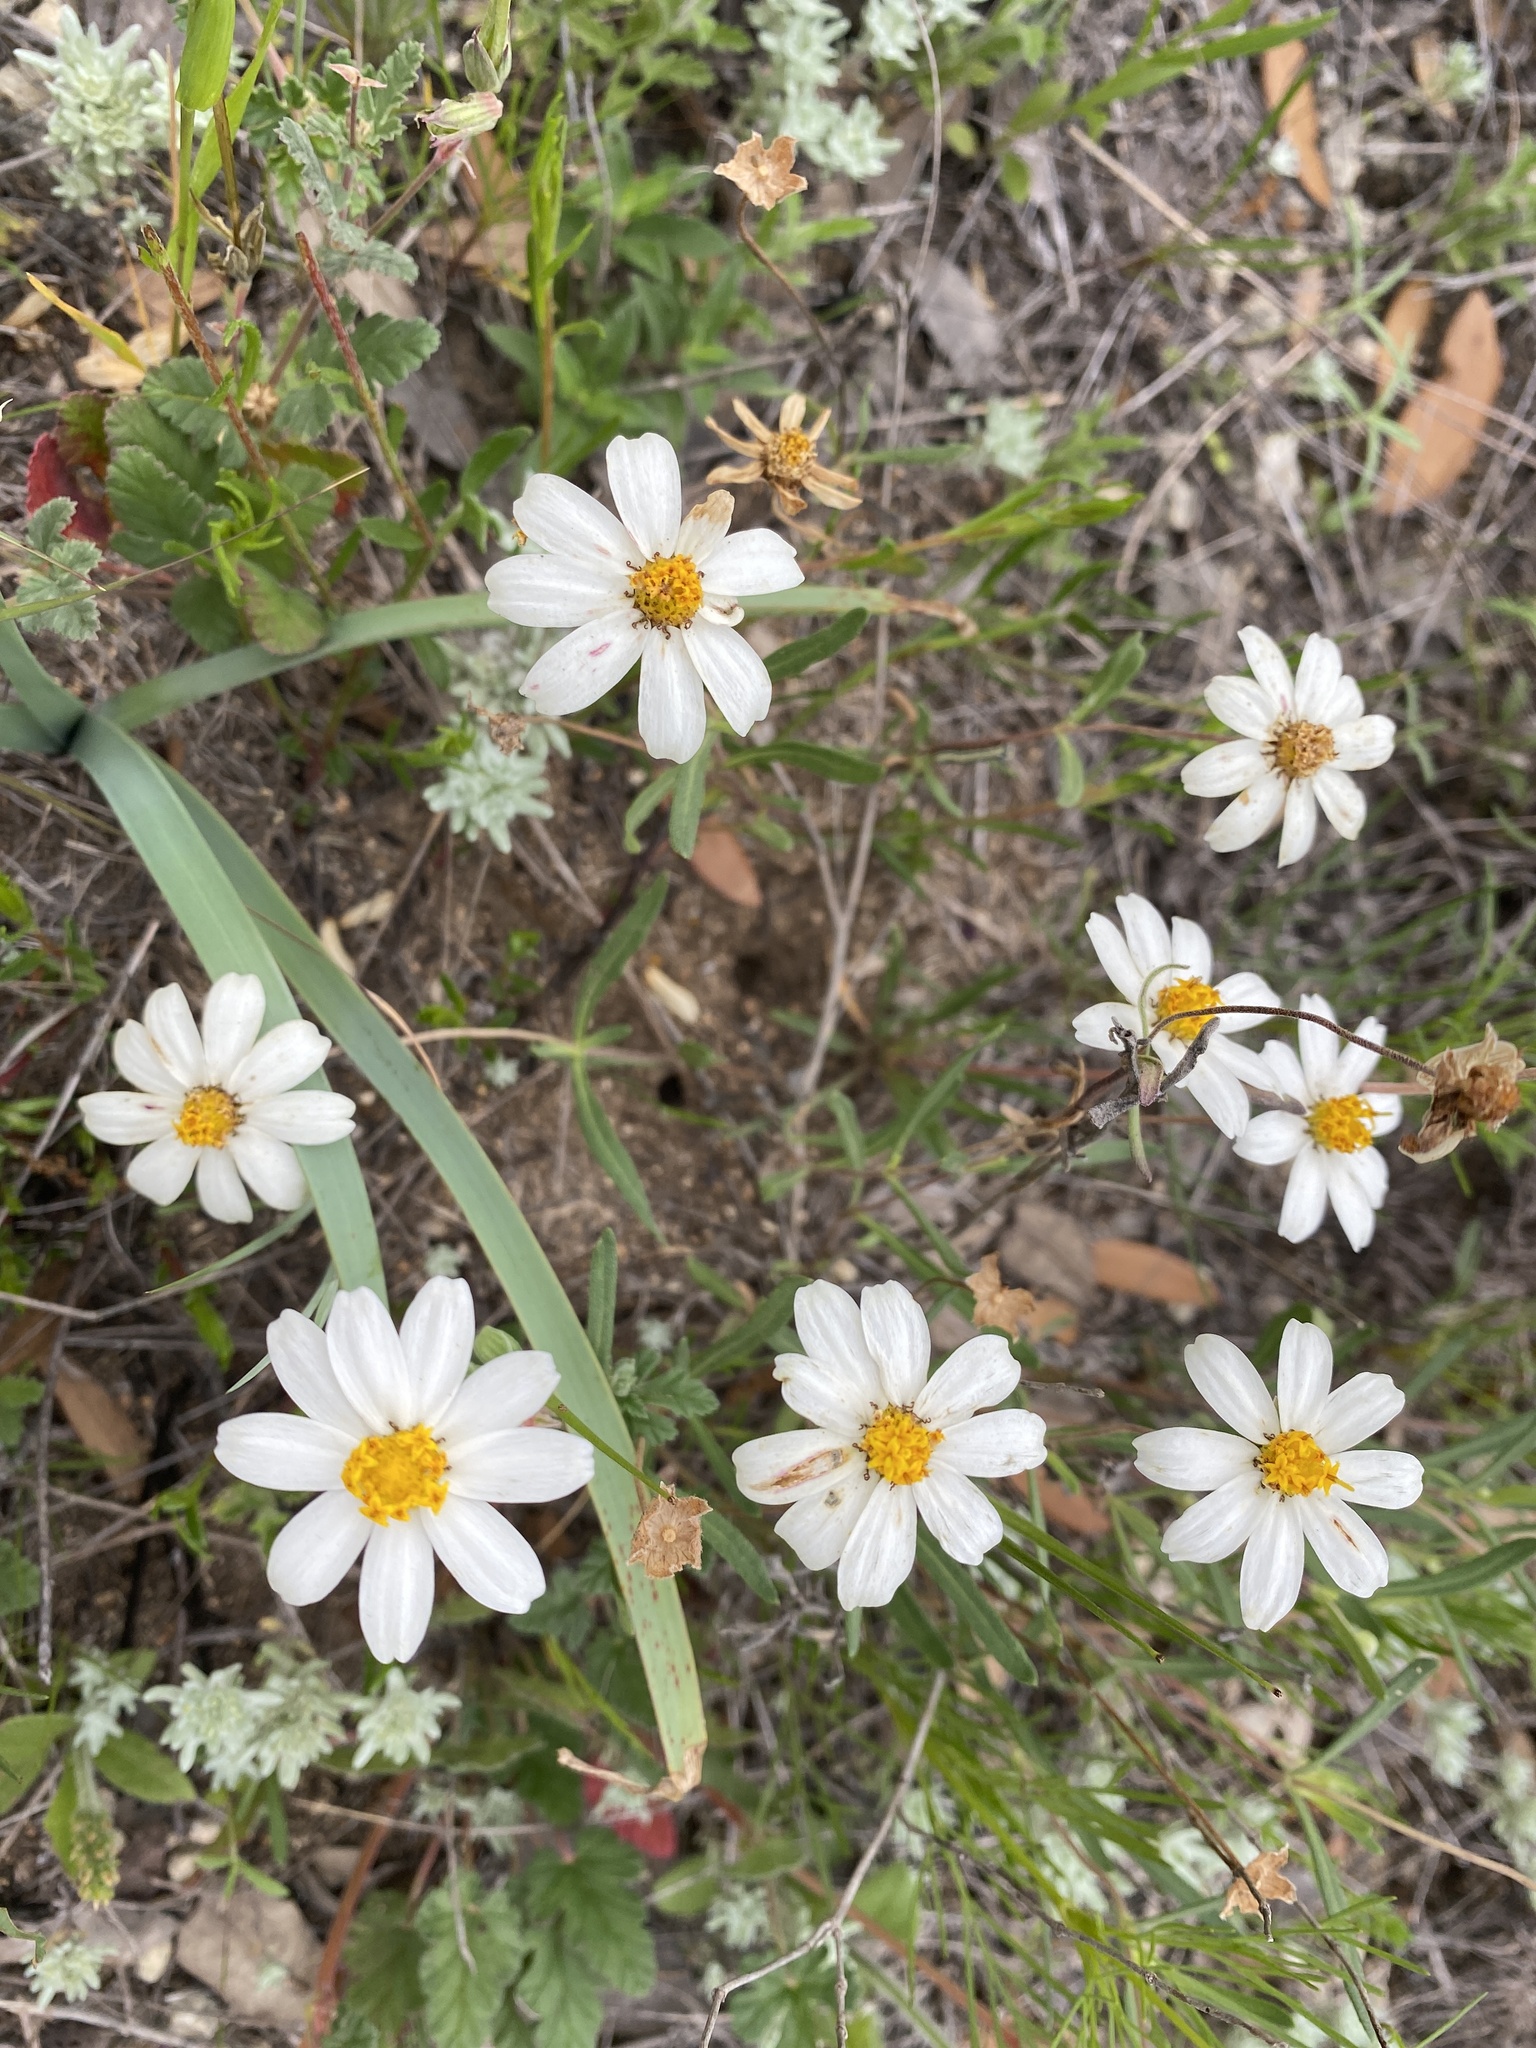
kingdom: Plantae
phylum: Tracheophyta
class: Magnoliopsida
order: Asterales
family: Asteraceae
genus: Melampodium
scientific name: Melampodium leucanthum
